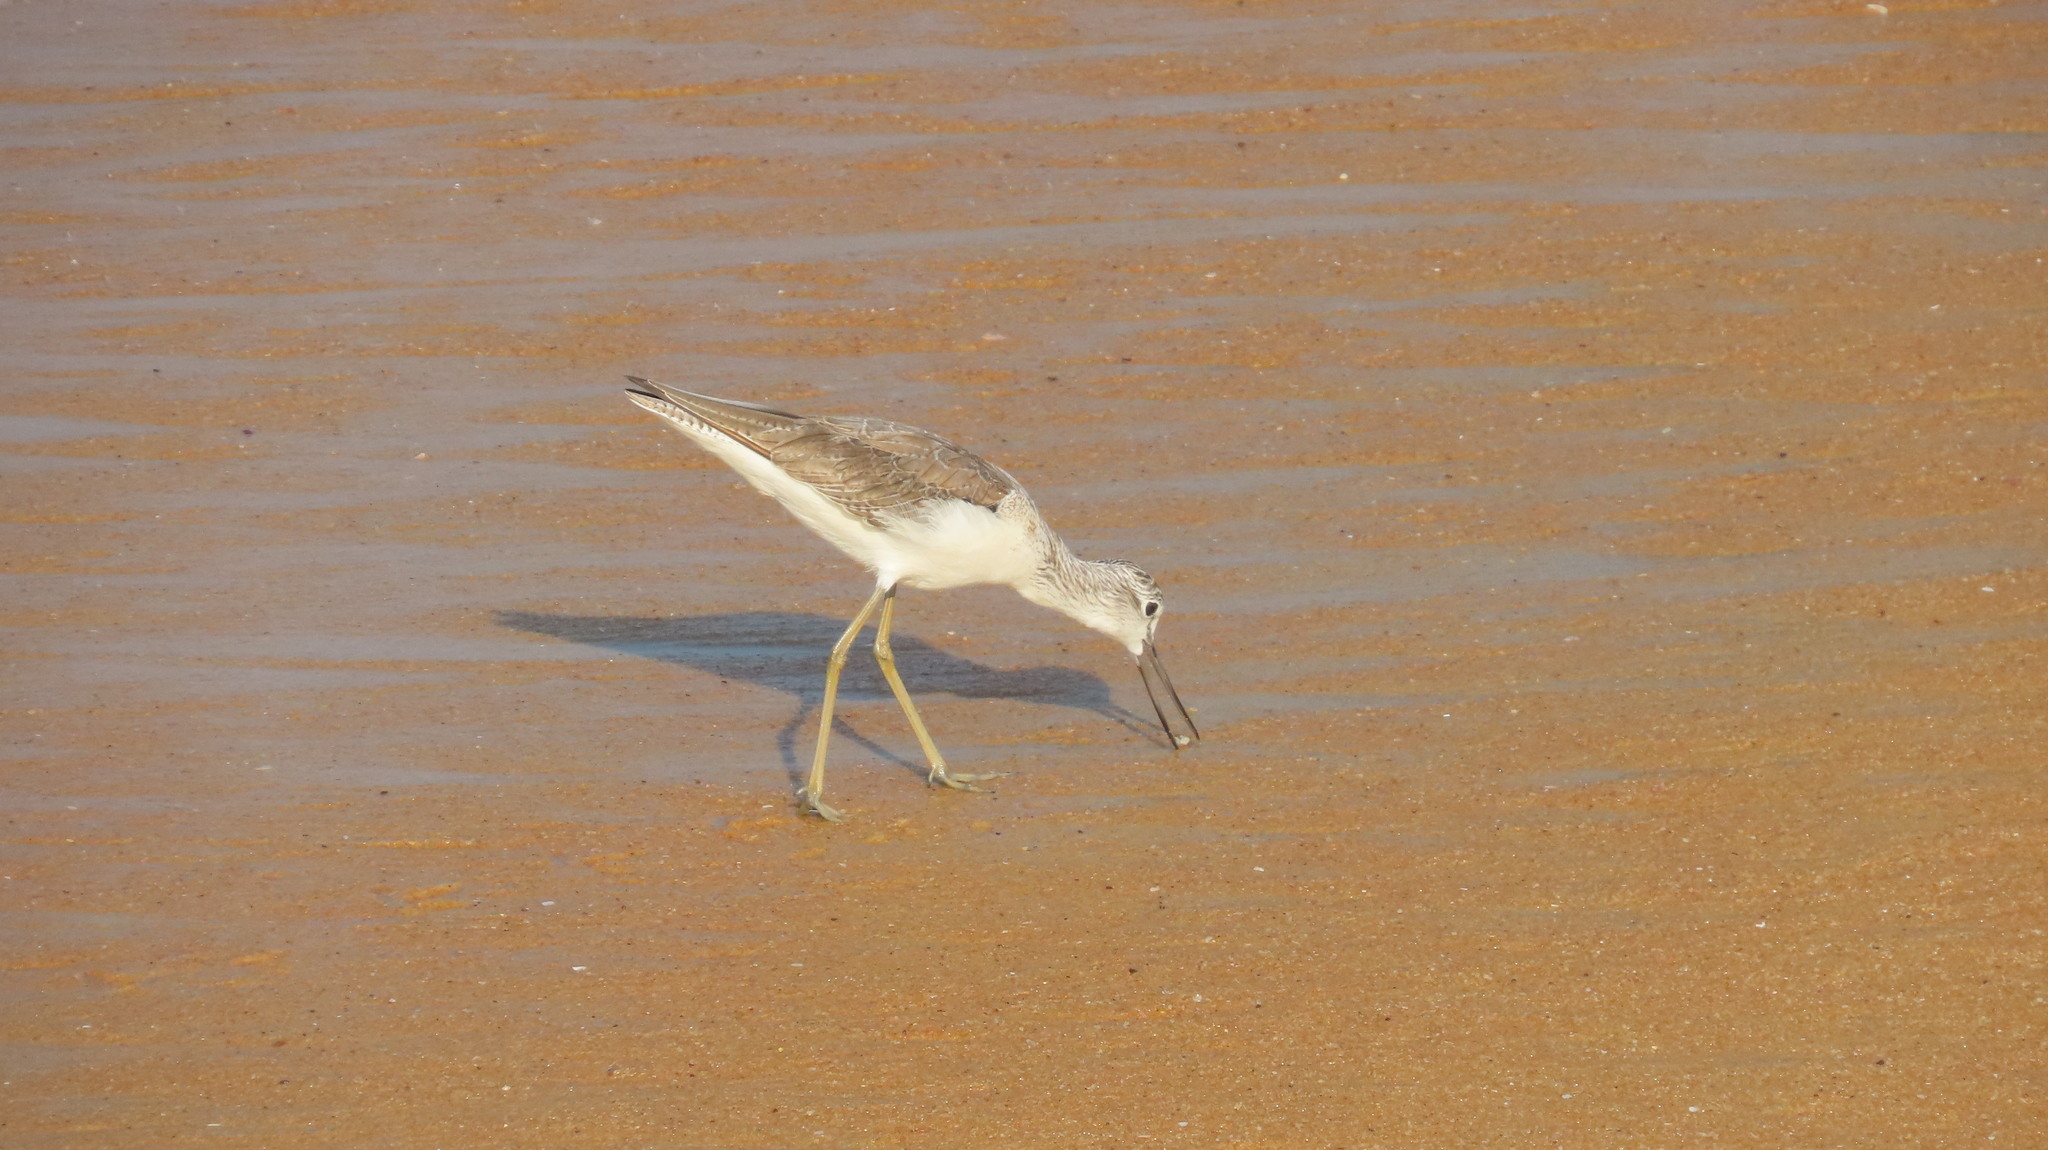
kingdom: Animalia
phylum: Chordata
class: Aves
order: Charadriiformes
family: Scolopacidae
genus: Tringa
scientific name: Tringa nebularia
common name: Common greenshank
